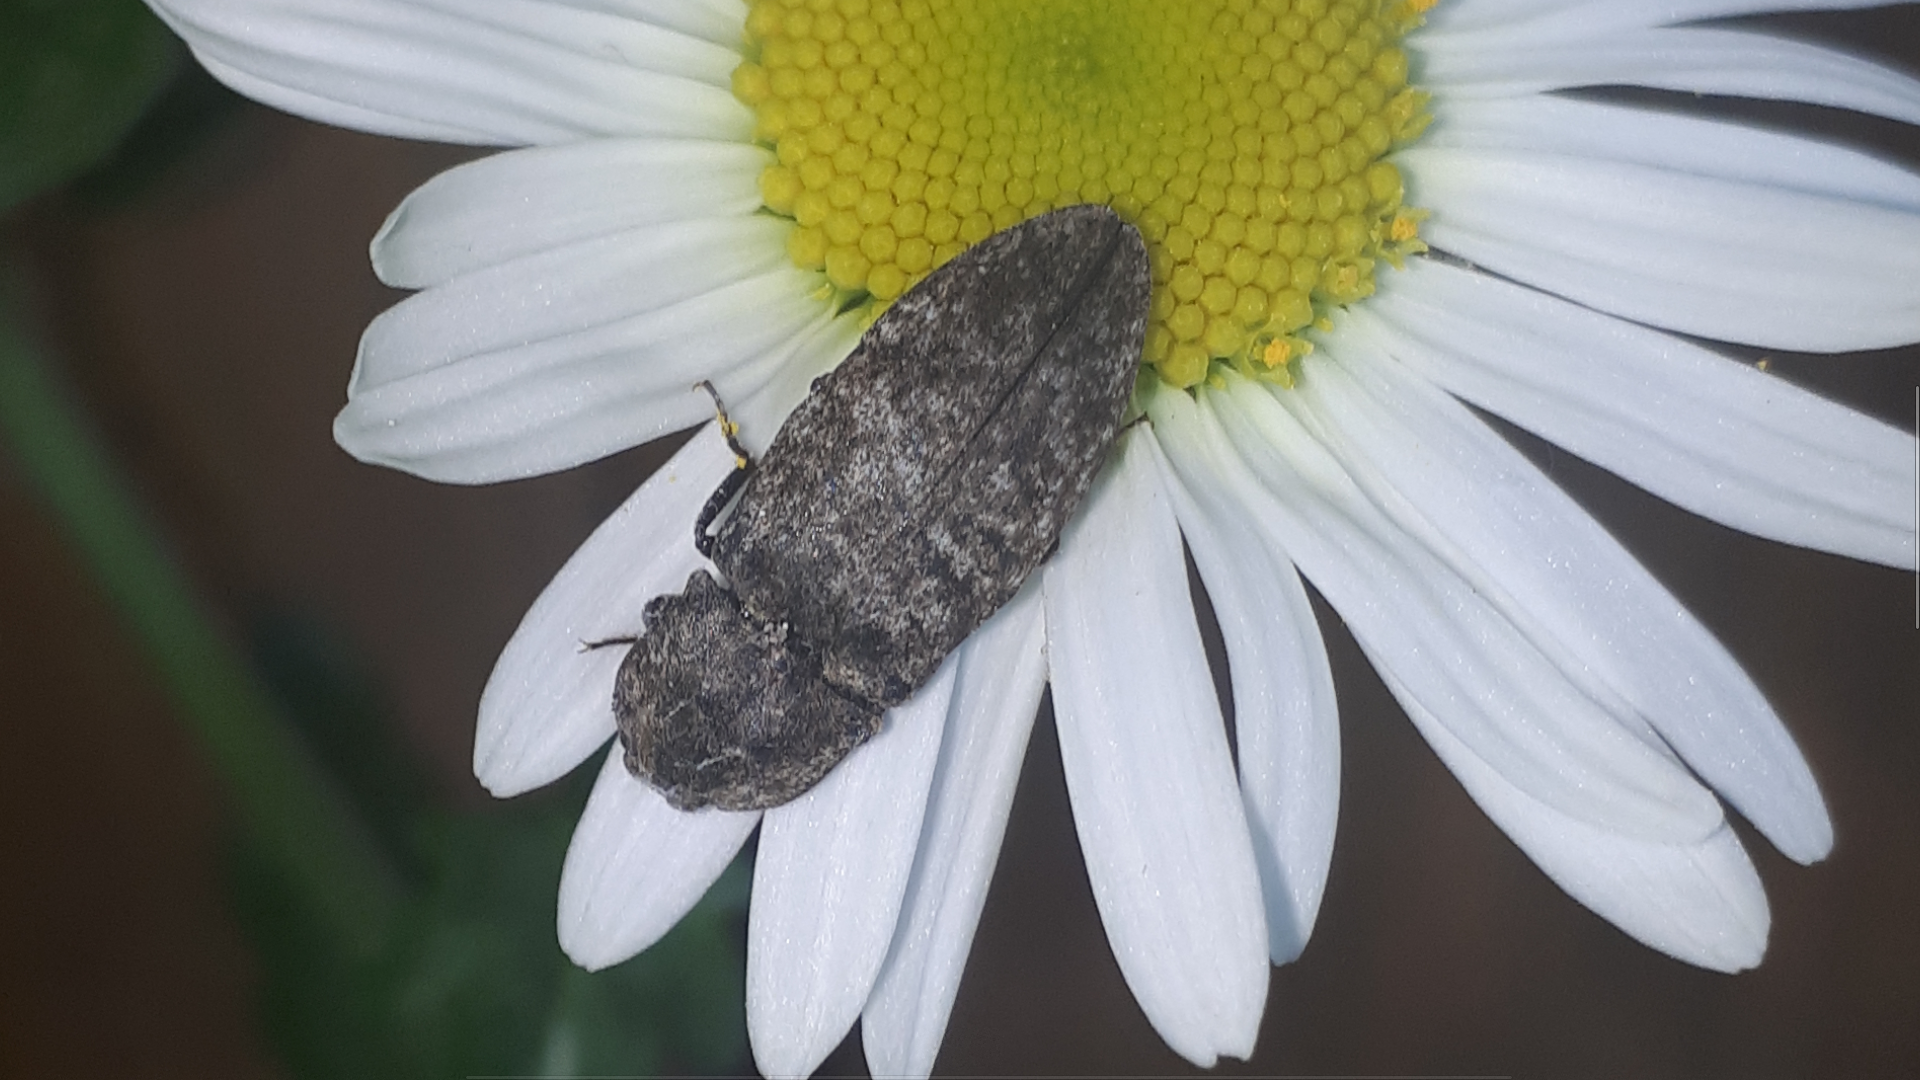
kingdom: Animalia
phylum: Arthropoda
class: Insecta
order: Coleoptera
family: Elateridae
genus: Agrypnus
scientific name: Agrypnus murinus
